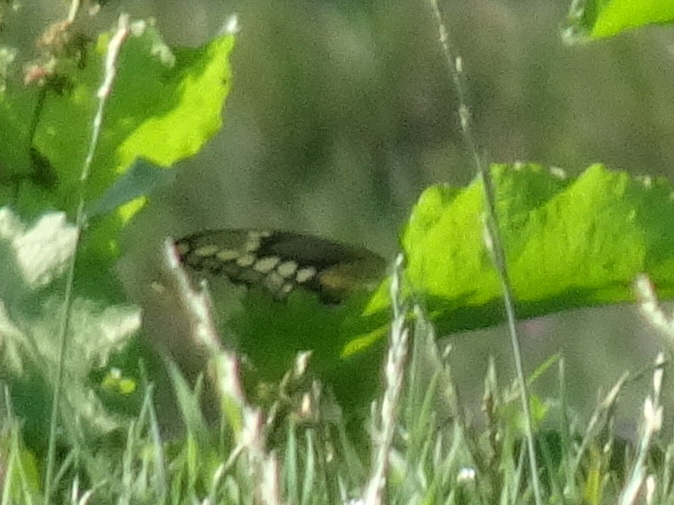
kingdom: Animalia
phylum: Arthropoda
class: Insecta
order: Lepidoptera
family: Papilionidae
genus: Papilio
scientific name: Papilio cresphontes
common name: Giant swallowtail
